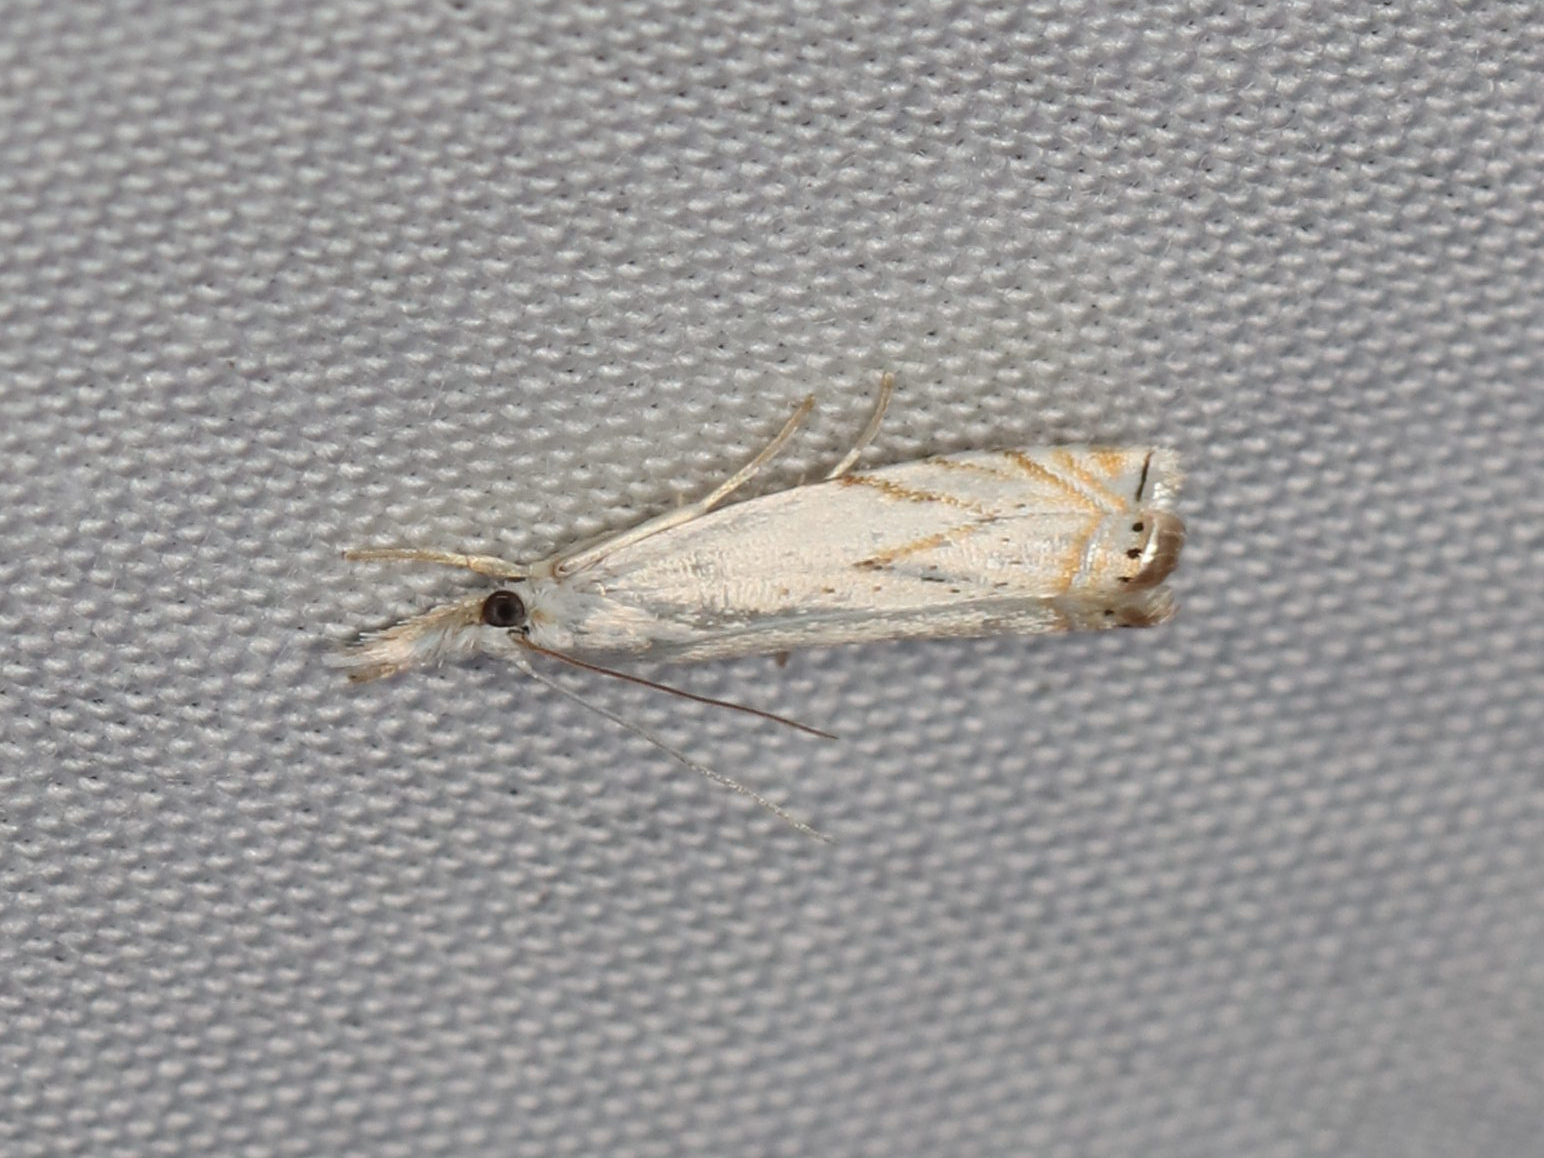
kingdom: Animalia
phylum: Arthropoda
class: Insecta
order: Lepidoptera
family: Crambidae
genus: Crambus
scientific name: Crambus albellus
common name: Small white grass-veneer
